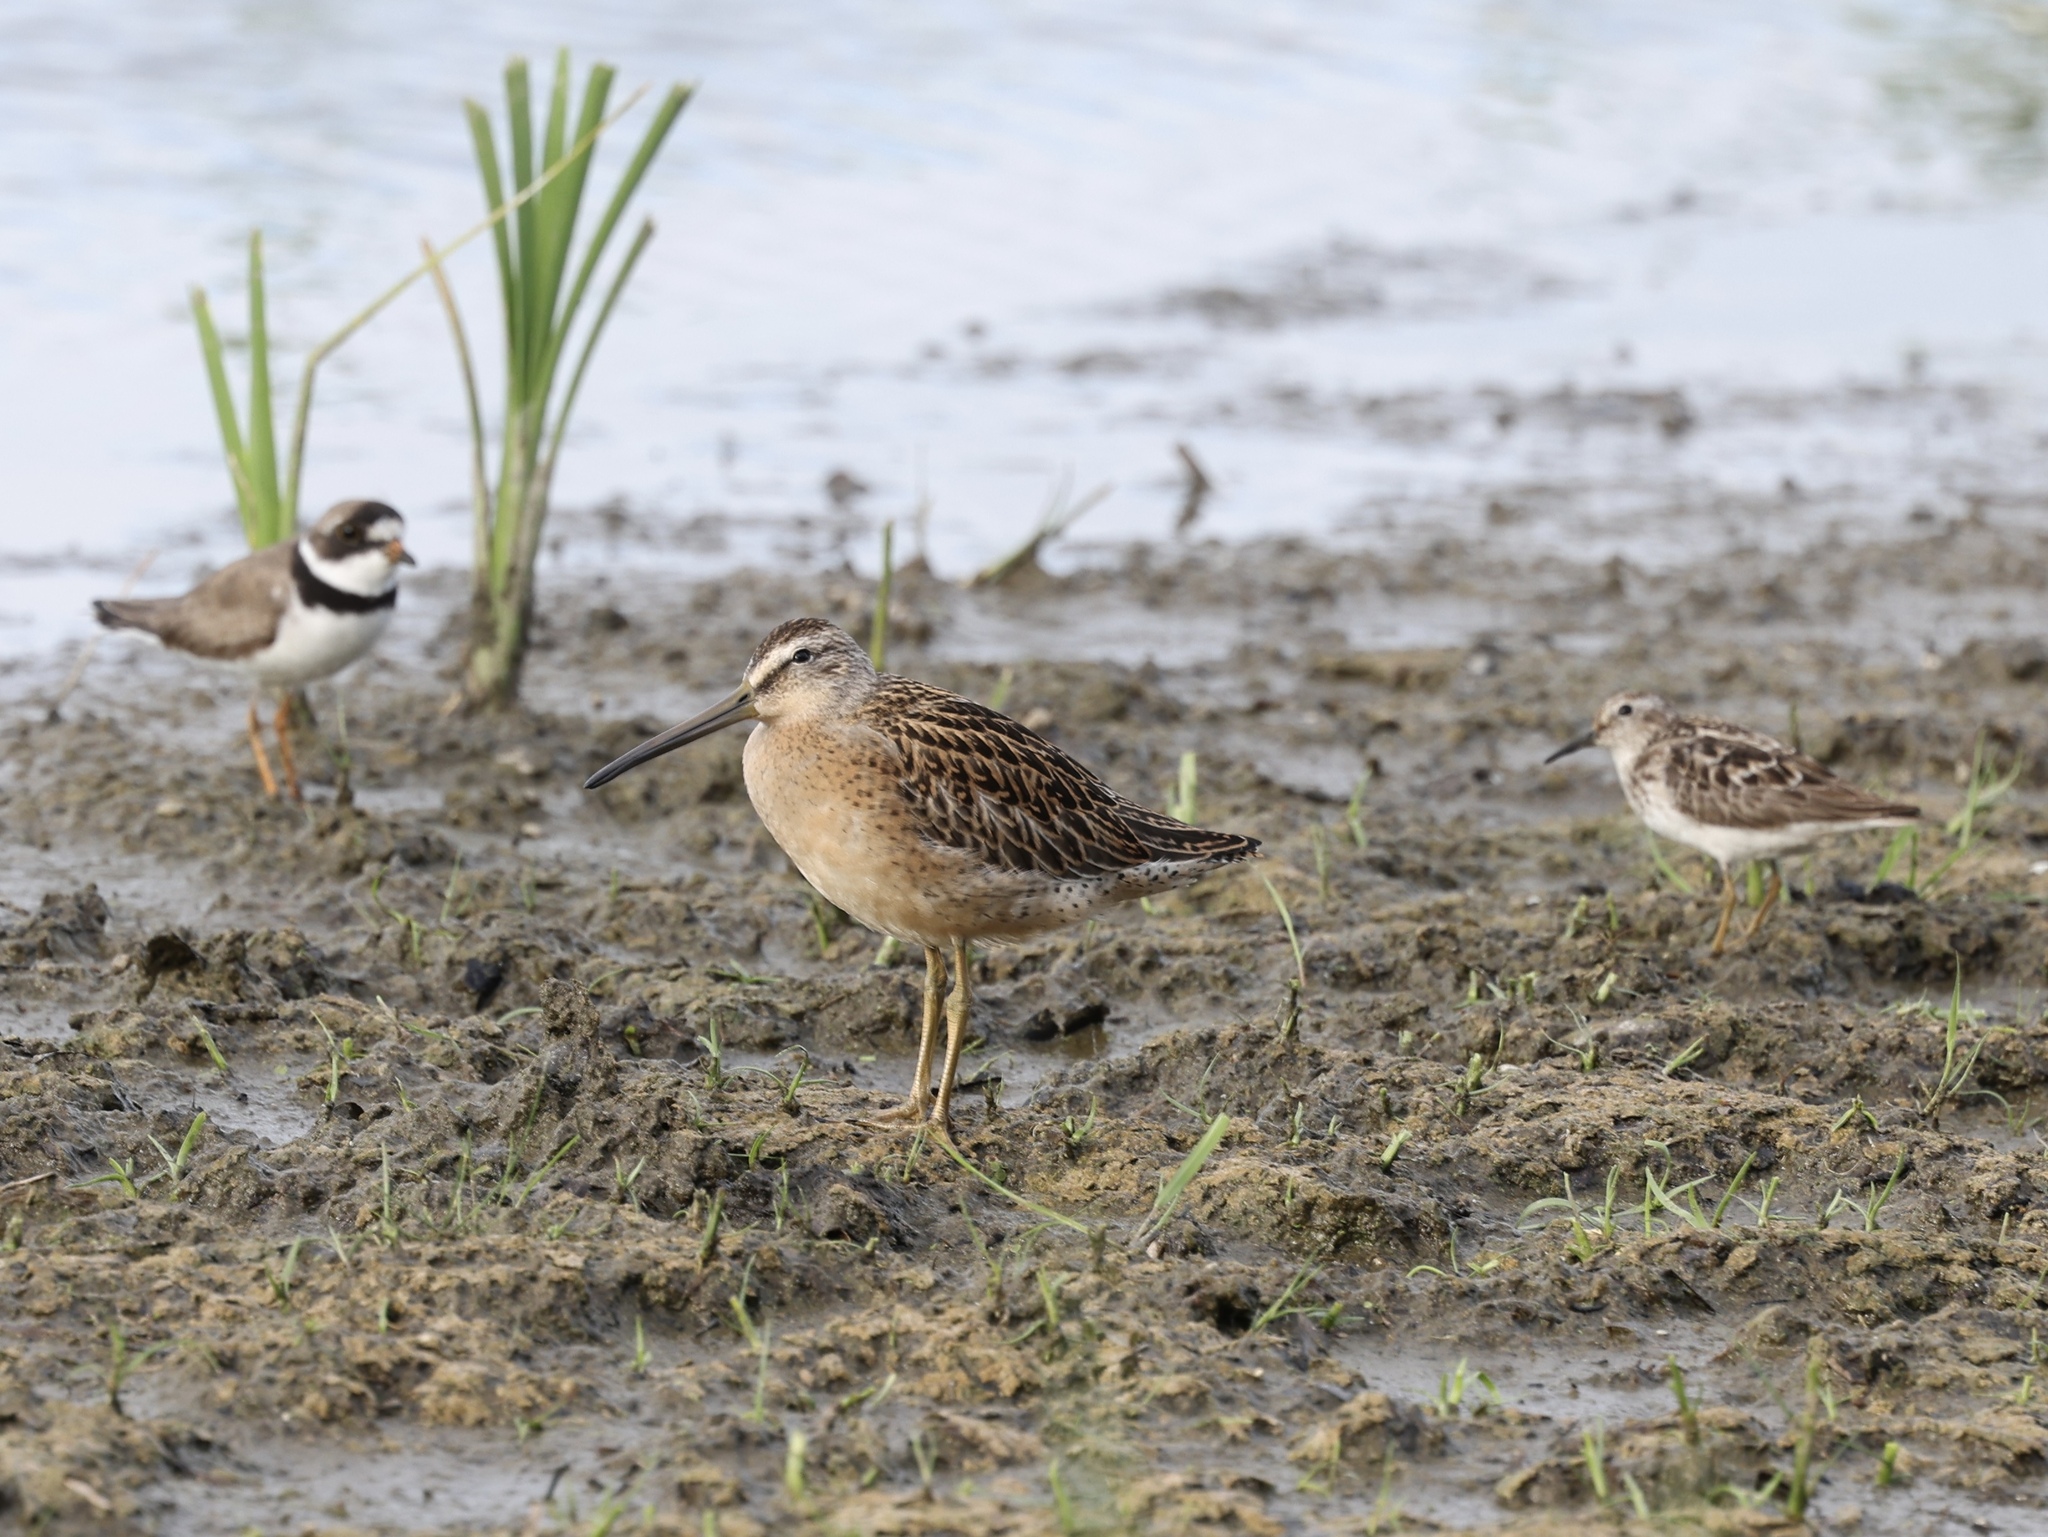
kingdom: Animalia
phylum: Chordata
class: Aves
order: Charadriiformes
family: Scolopacidae
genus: Limnodromus
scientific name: Limnodromus griseus
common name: Short-billed dowitcher
